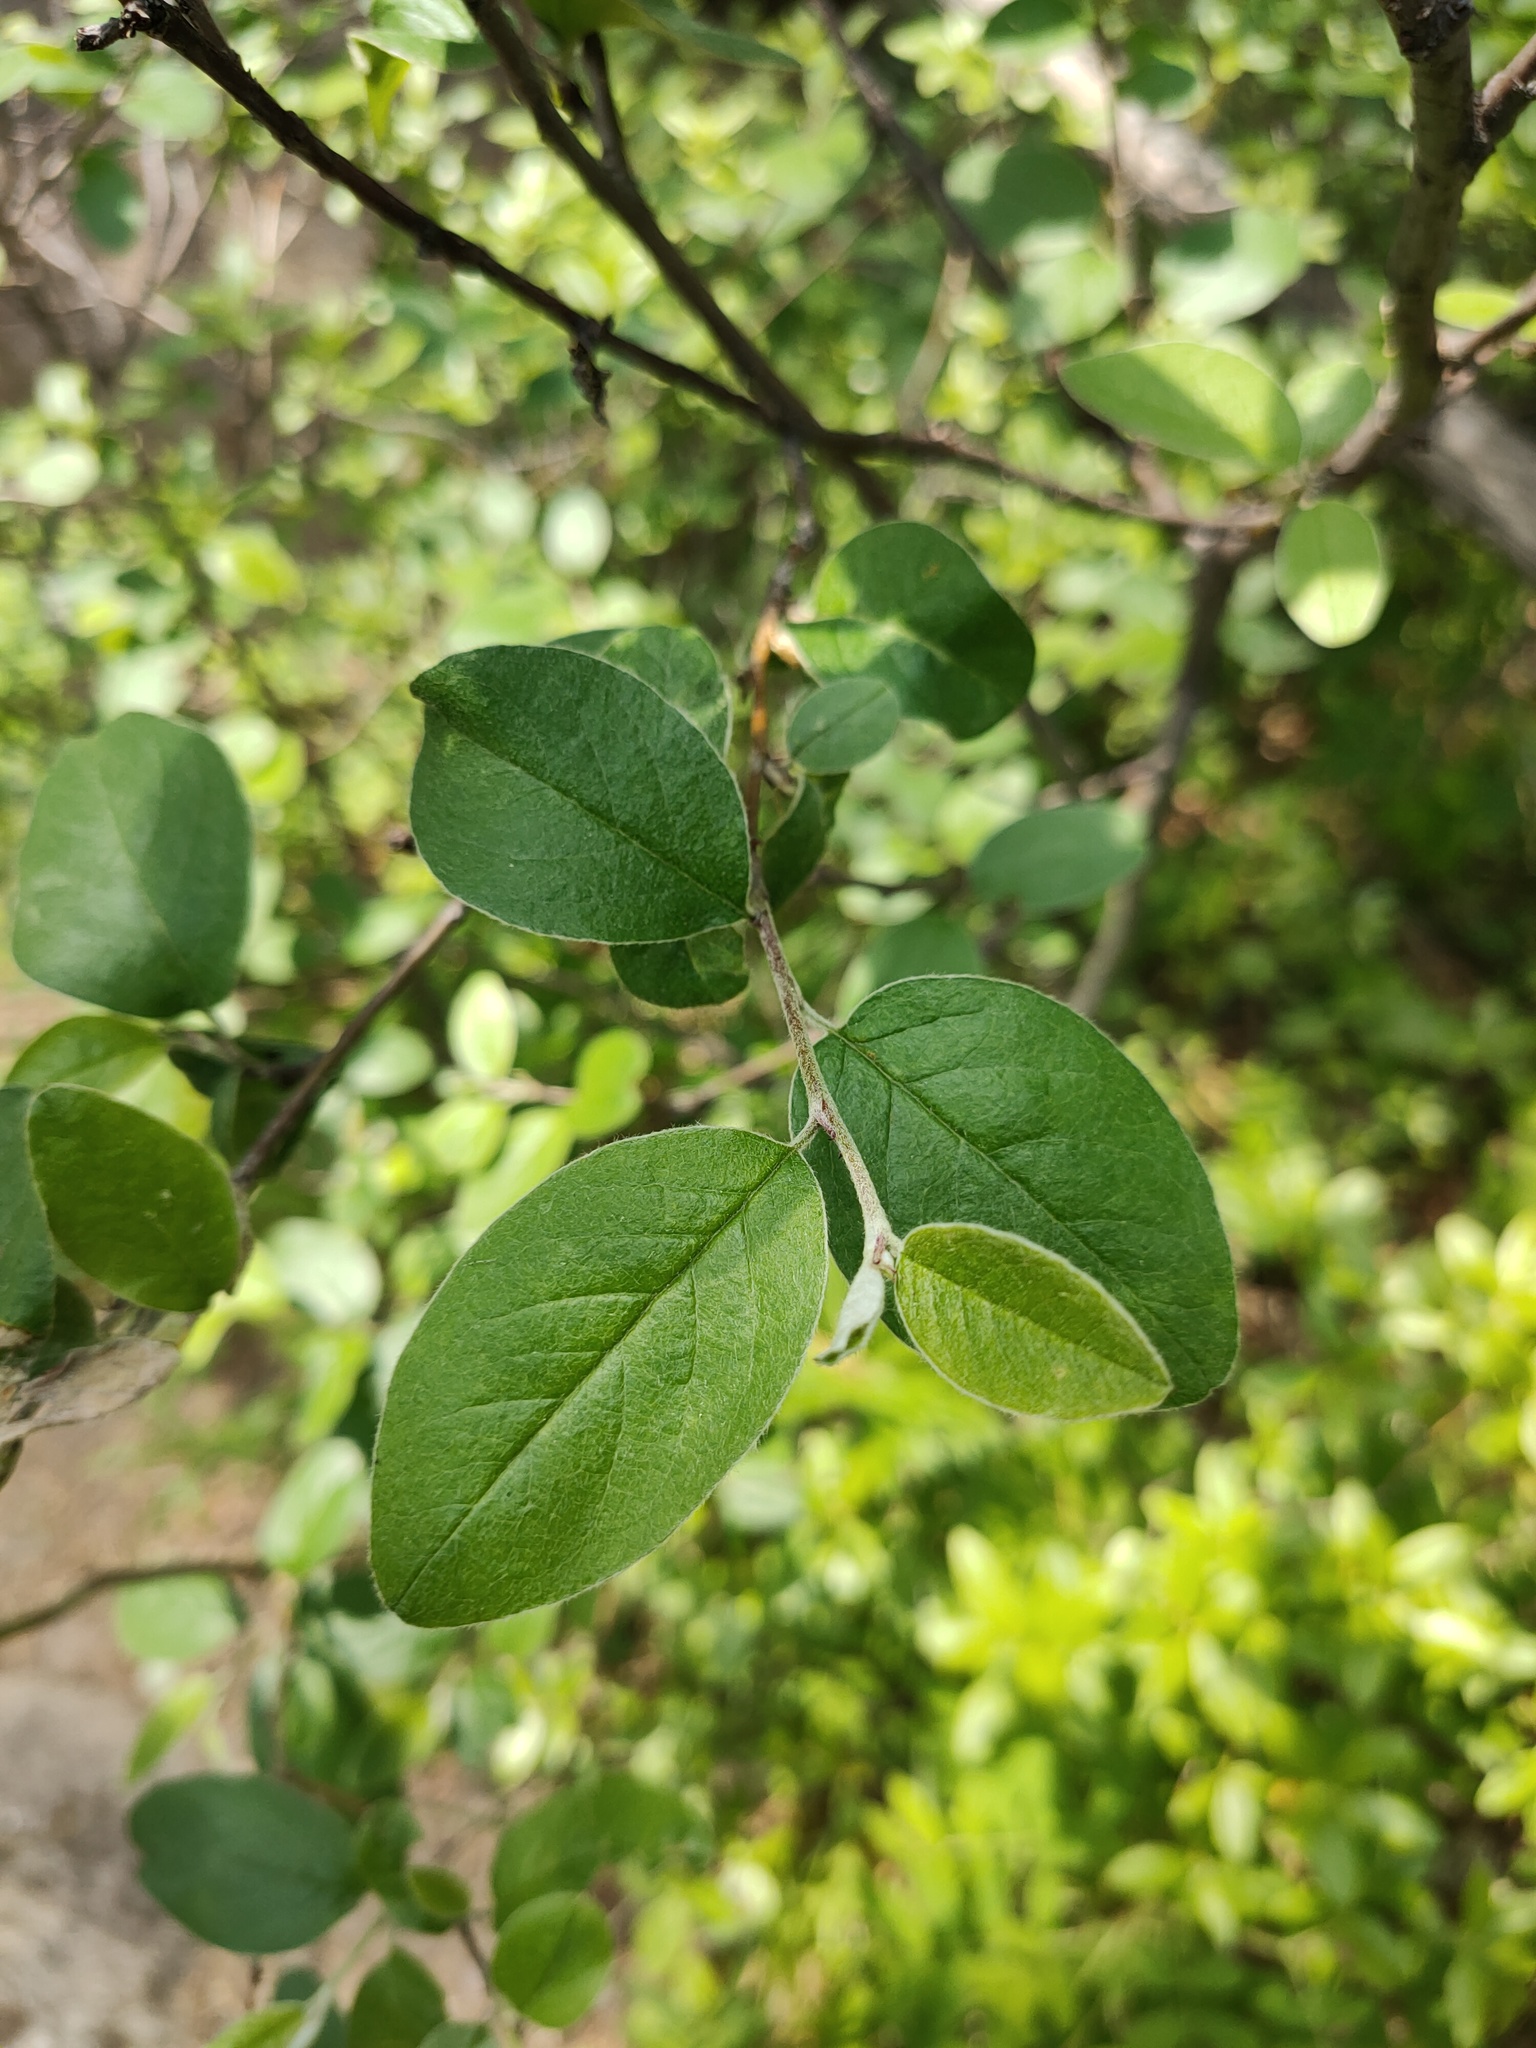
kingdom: Plantae
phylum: Tracheophyta
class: Magnoliopsida
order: Rosales
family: Rosaceae
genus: Cotoneaster
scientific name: Cotoneaster melanocarpus
